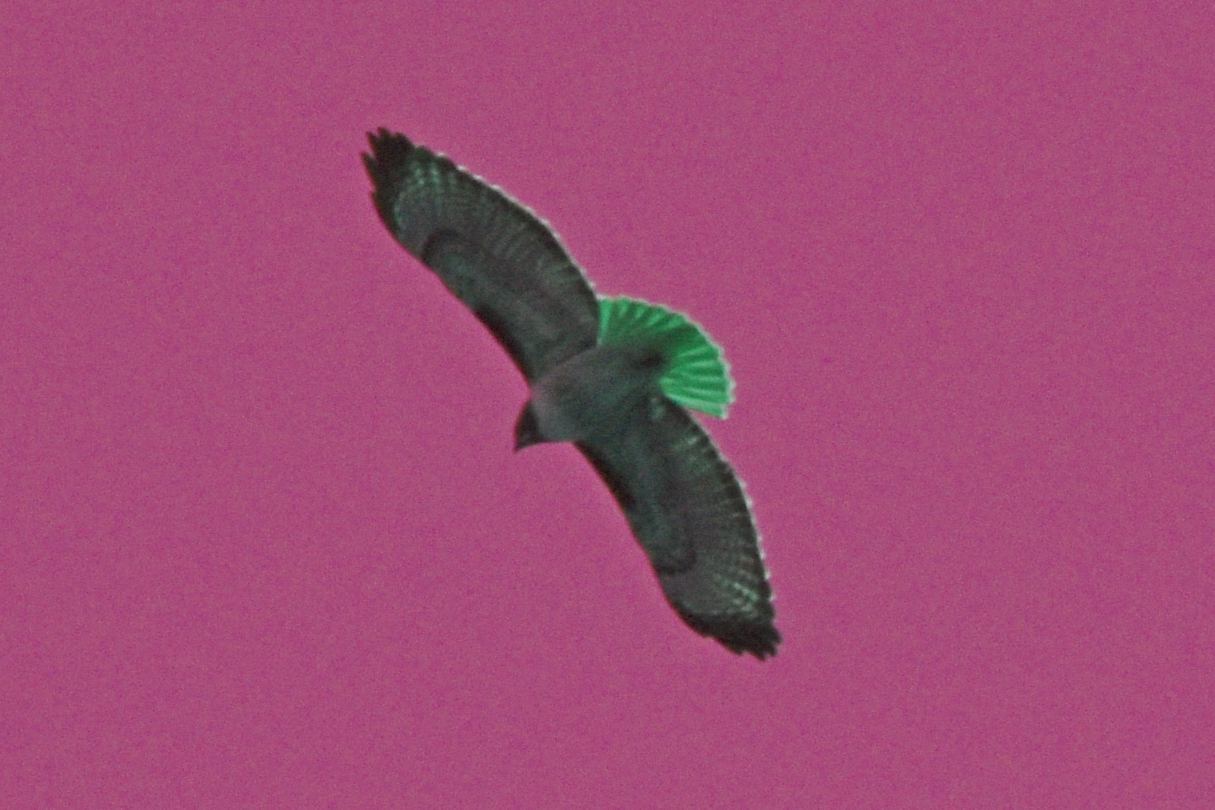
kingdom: Animalia
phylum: Chordata
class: Aves
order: Accipitriformes
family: Accipitridae
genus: Buteo
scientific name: Buteo jamaicensis
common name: Red-tailed hawk
